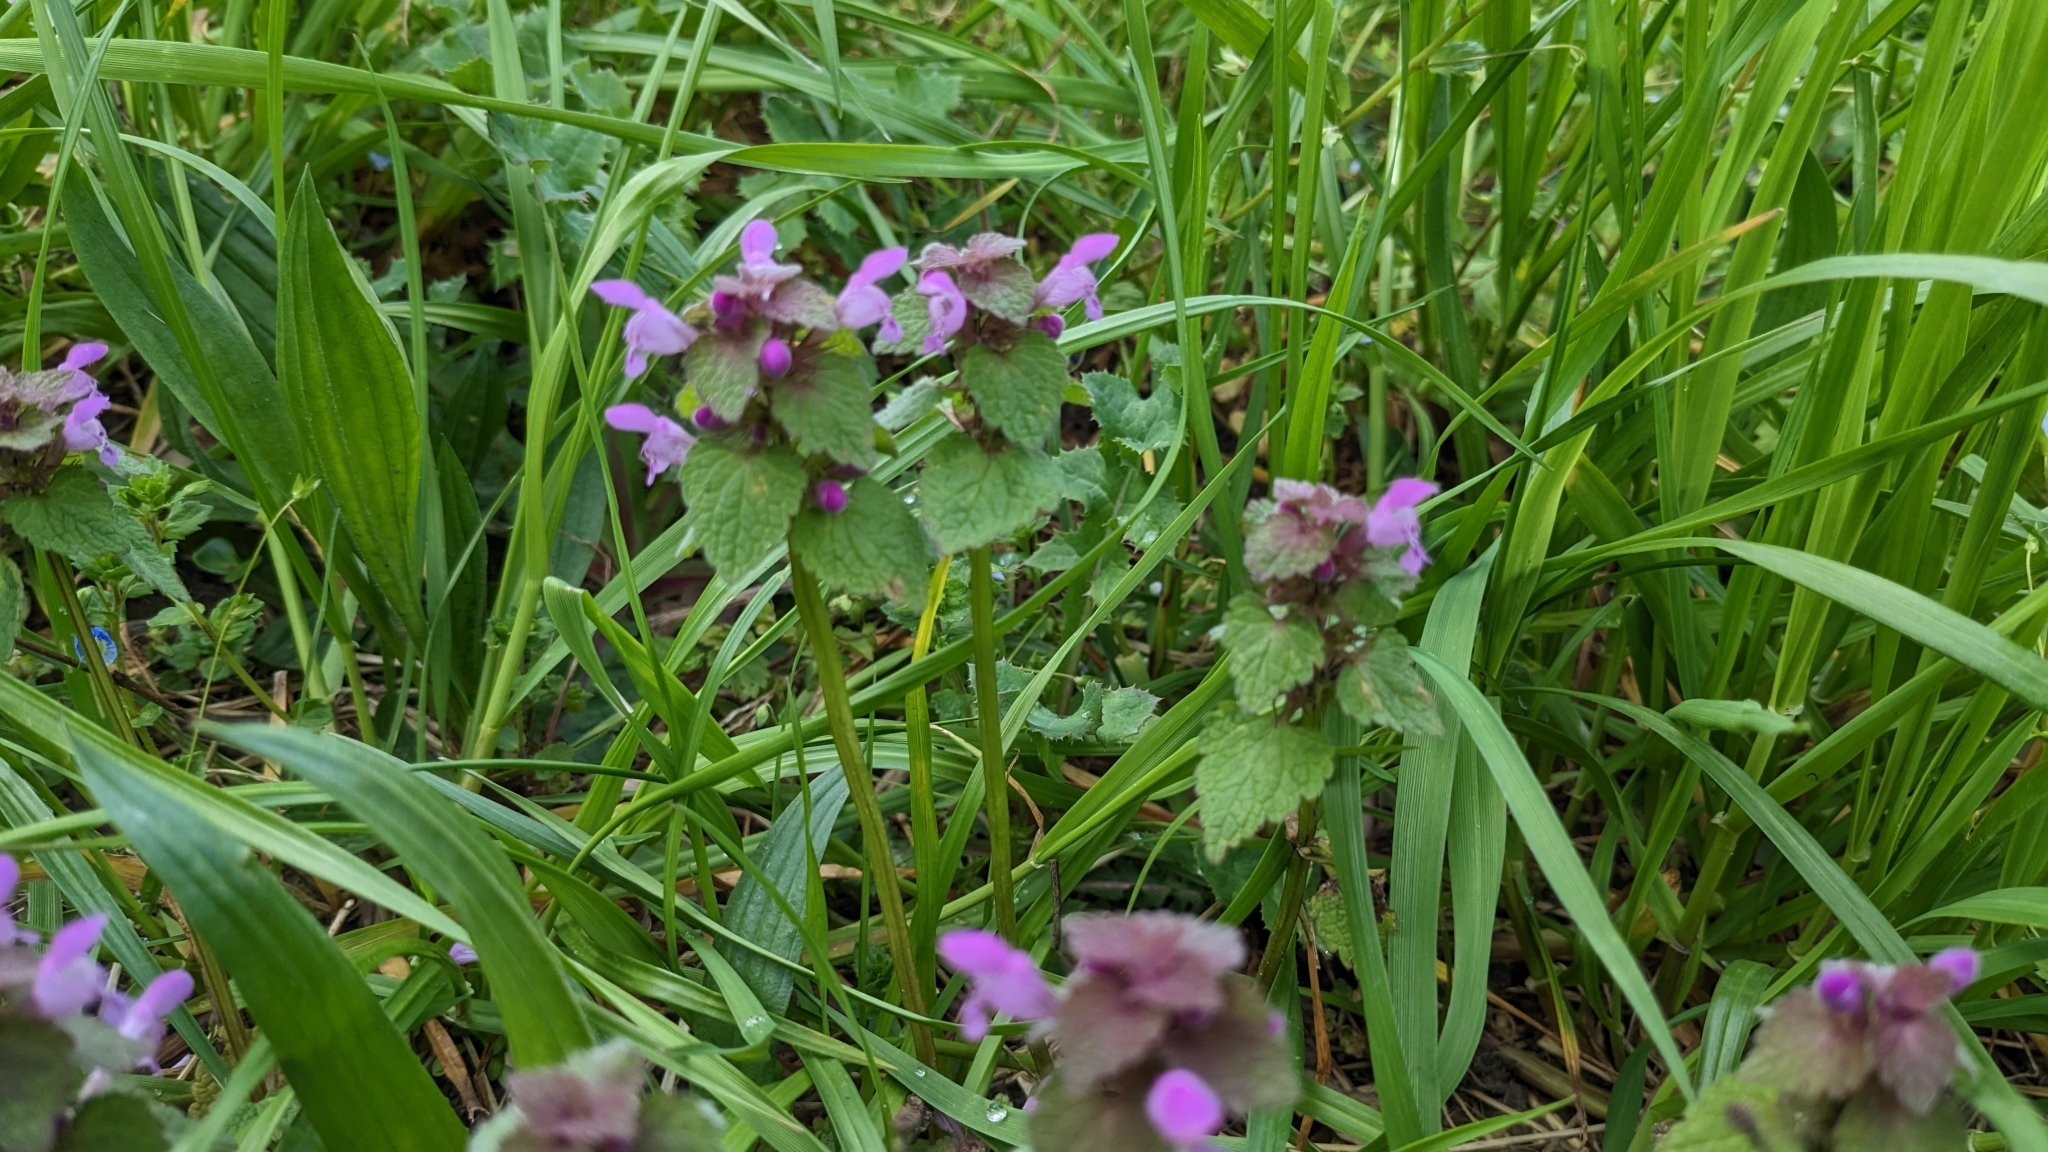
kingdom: Plantae
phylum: Tracheophyta
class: Magnoliopsida
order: Lamiales
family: Lamiaceae
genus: Lamium
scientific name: Lamium purpureum
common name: Red dead-nettle
